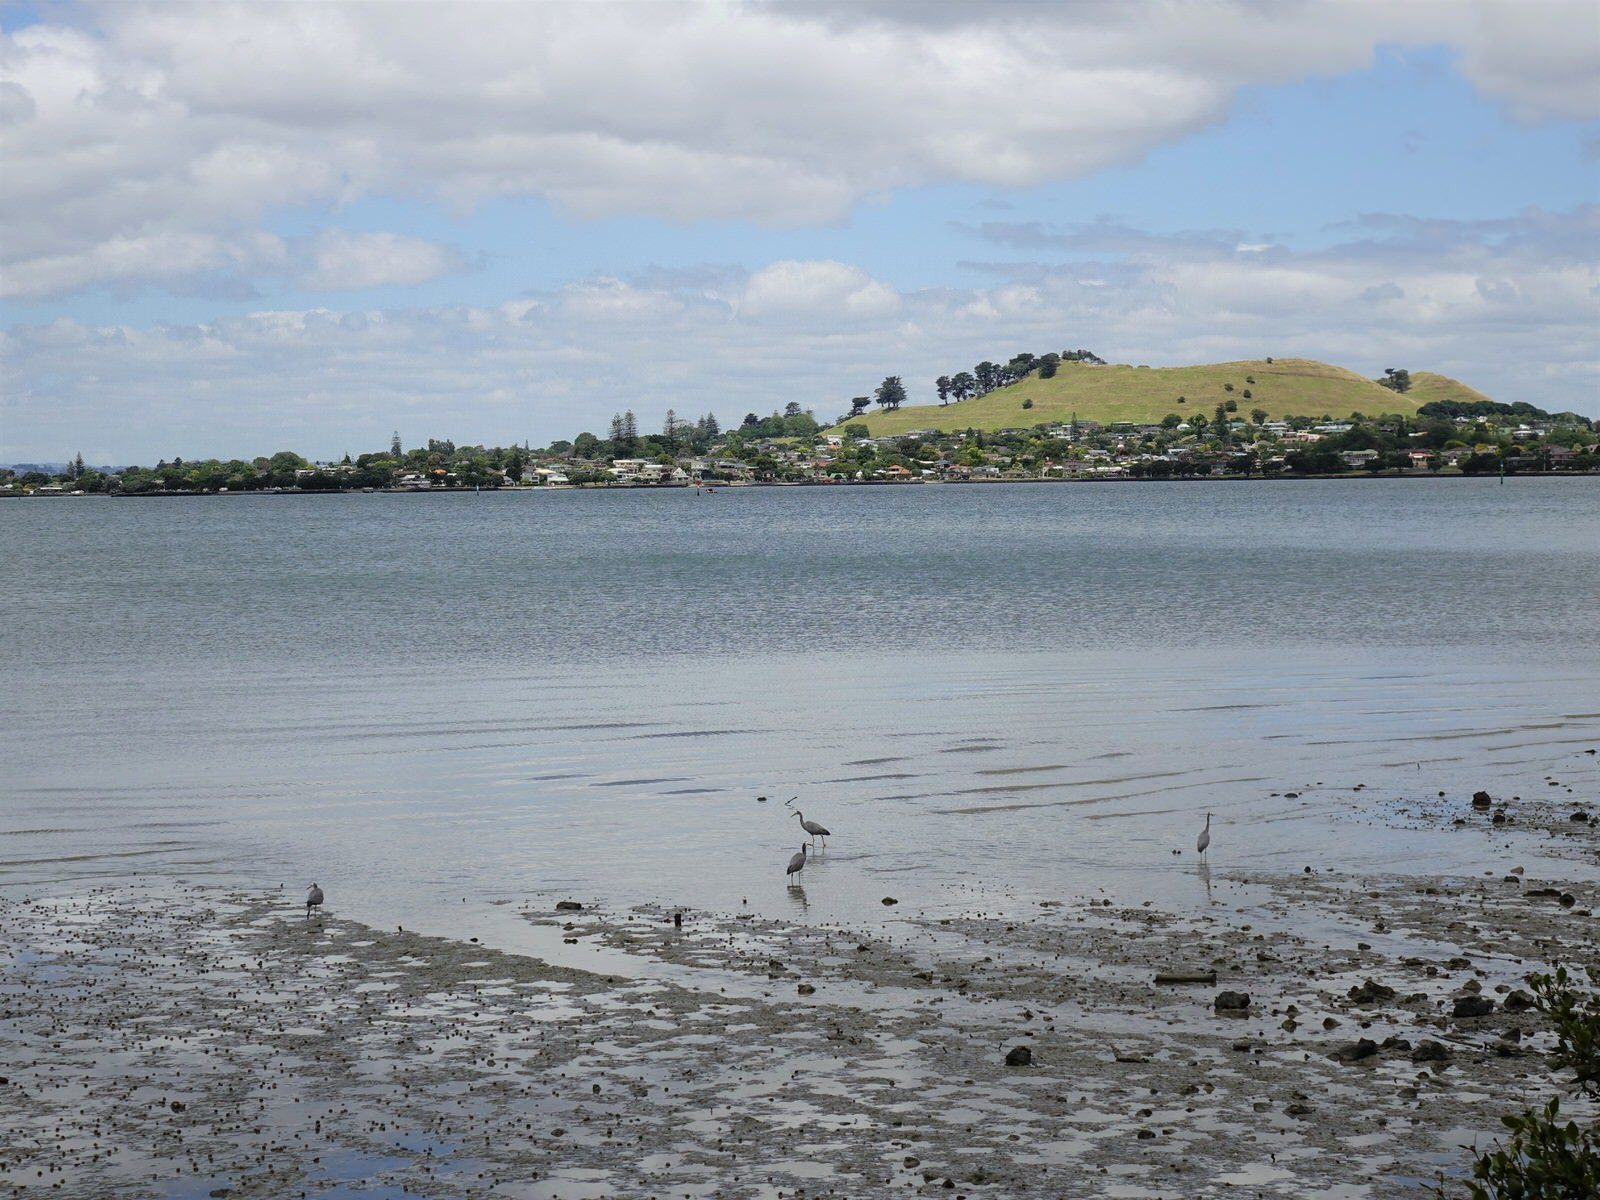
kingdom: Animalia
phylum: Chordata
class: Aves
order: Pelecaniformes
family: Ardeidae
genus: Egretta
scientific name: Egretta novaehollandiae
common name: White-faced heron
